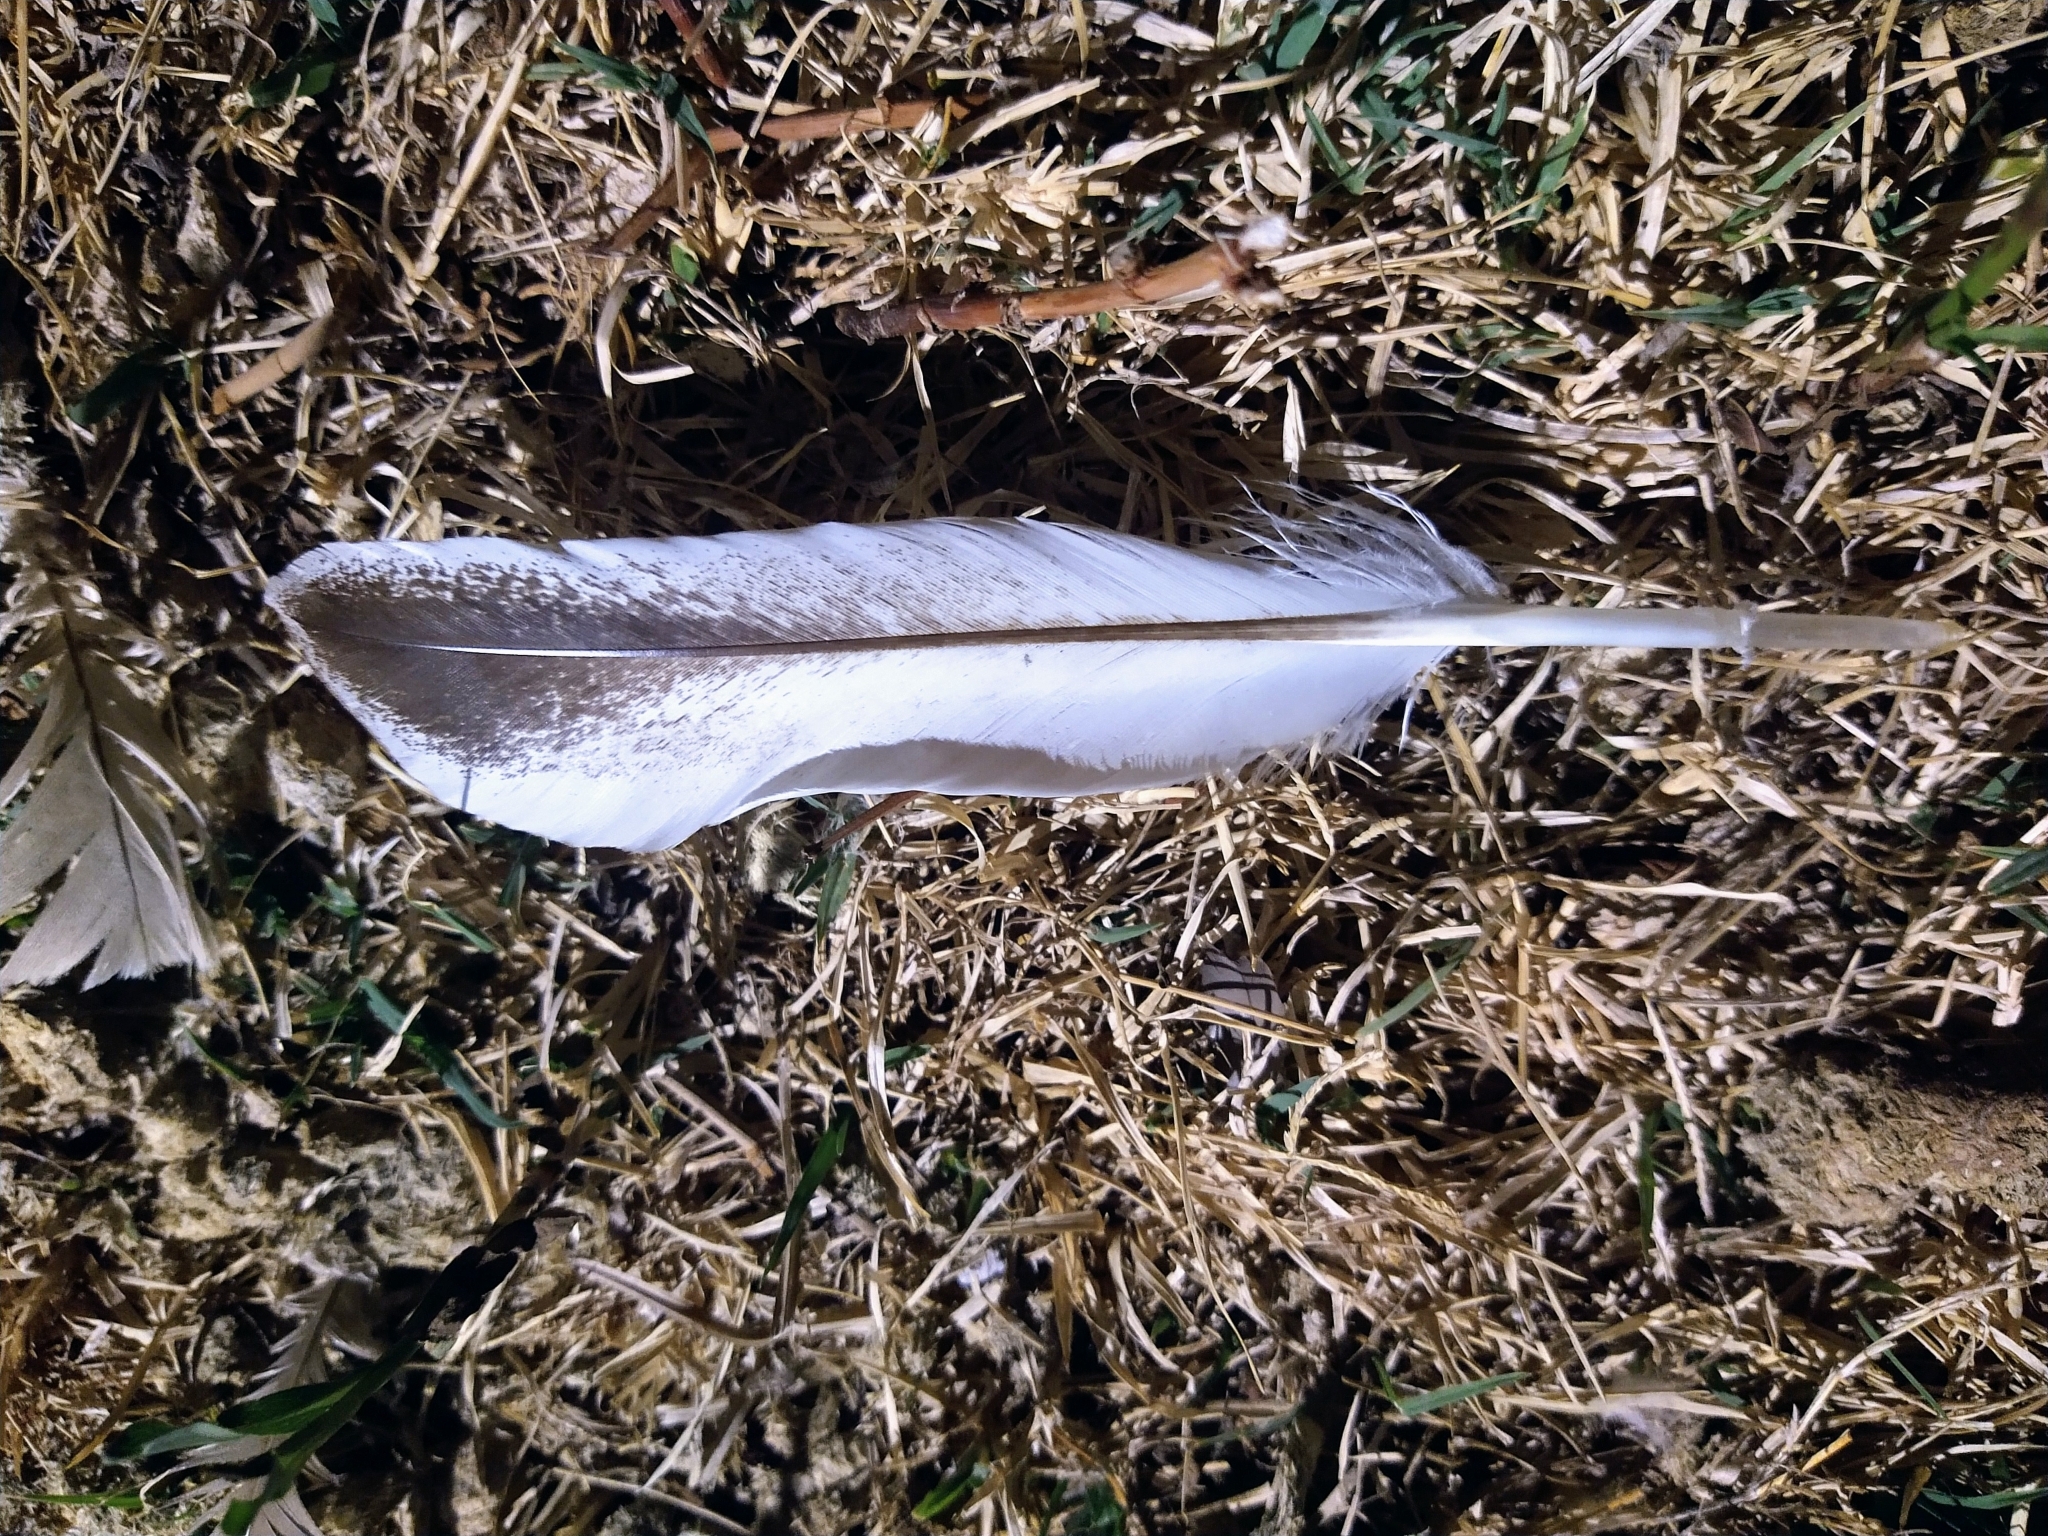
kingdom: Animalia
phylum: Chordata
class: Aves
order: Anseriformes
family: Anatidae
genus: Anser
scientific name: Anser anser
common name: Greylag goose
